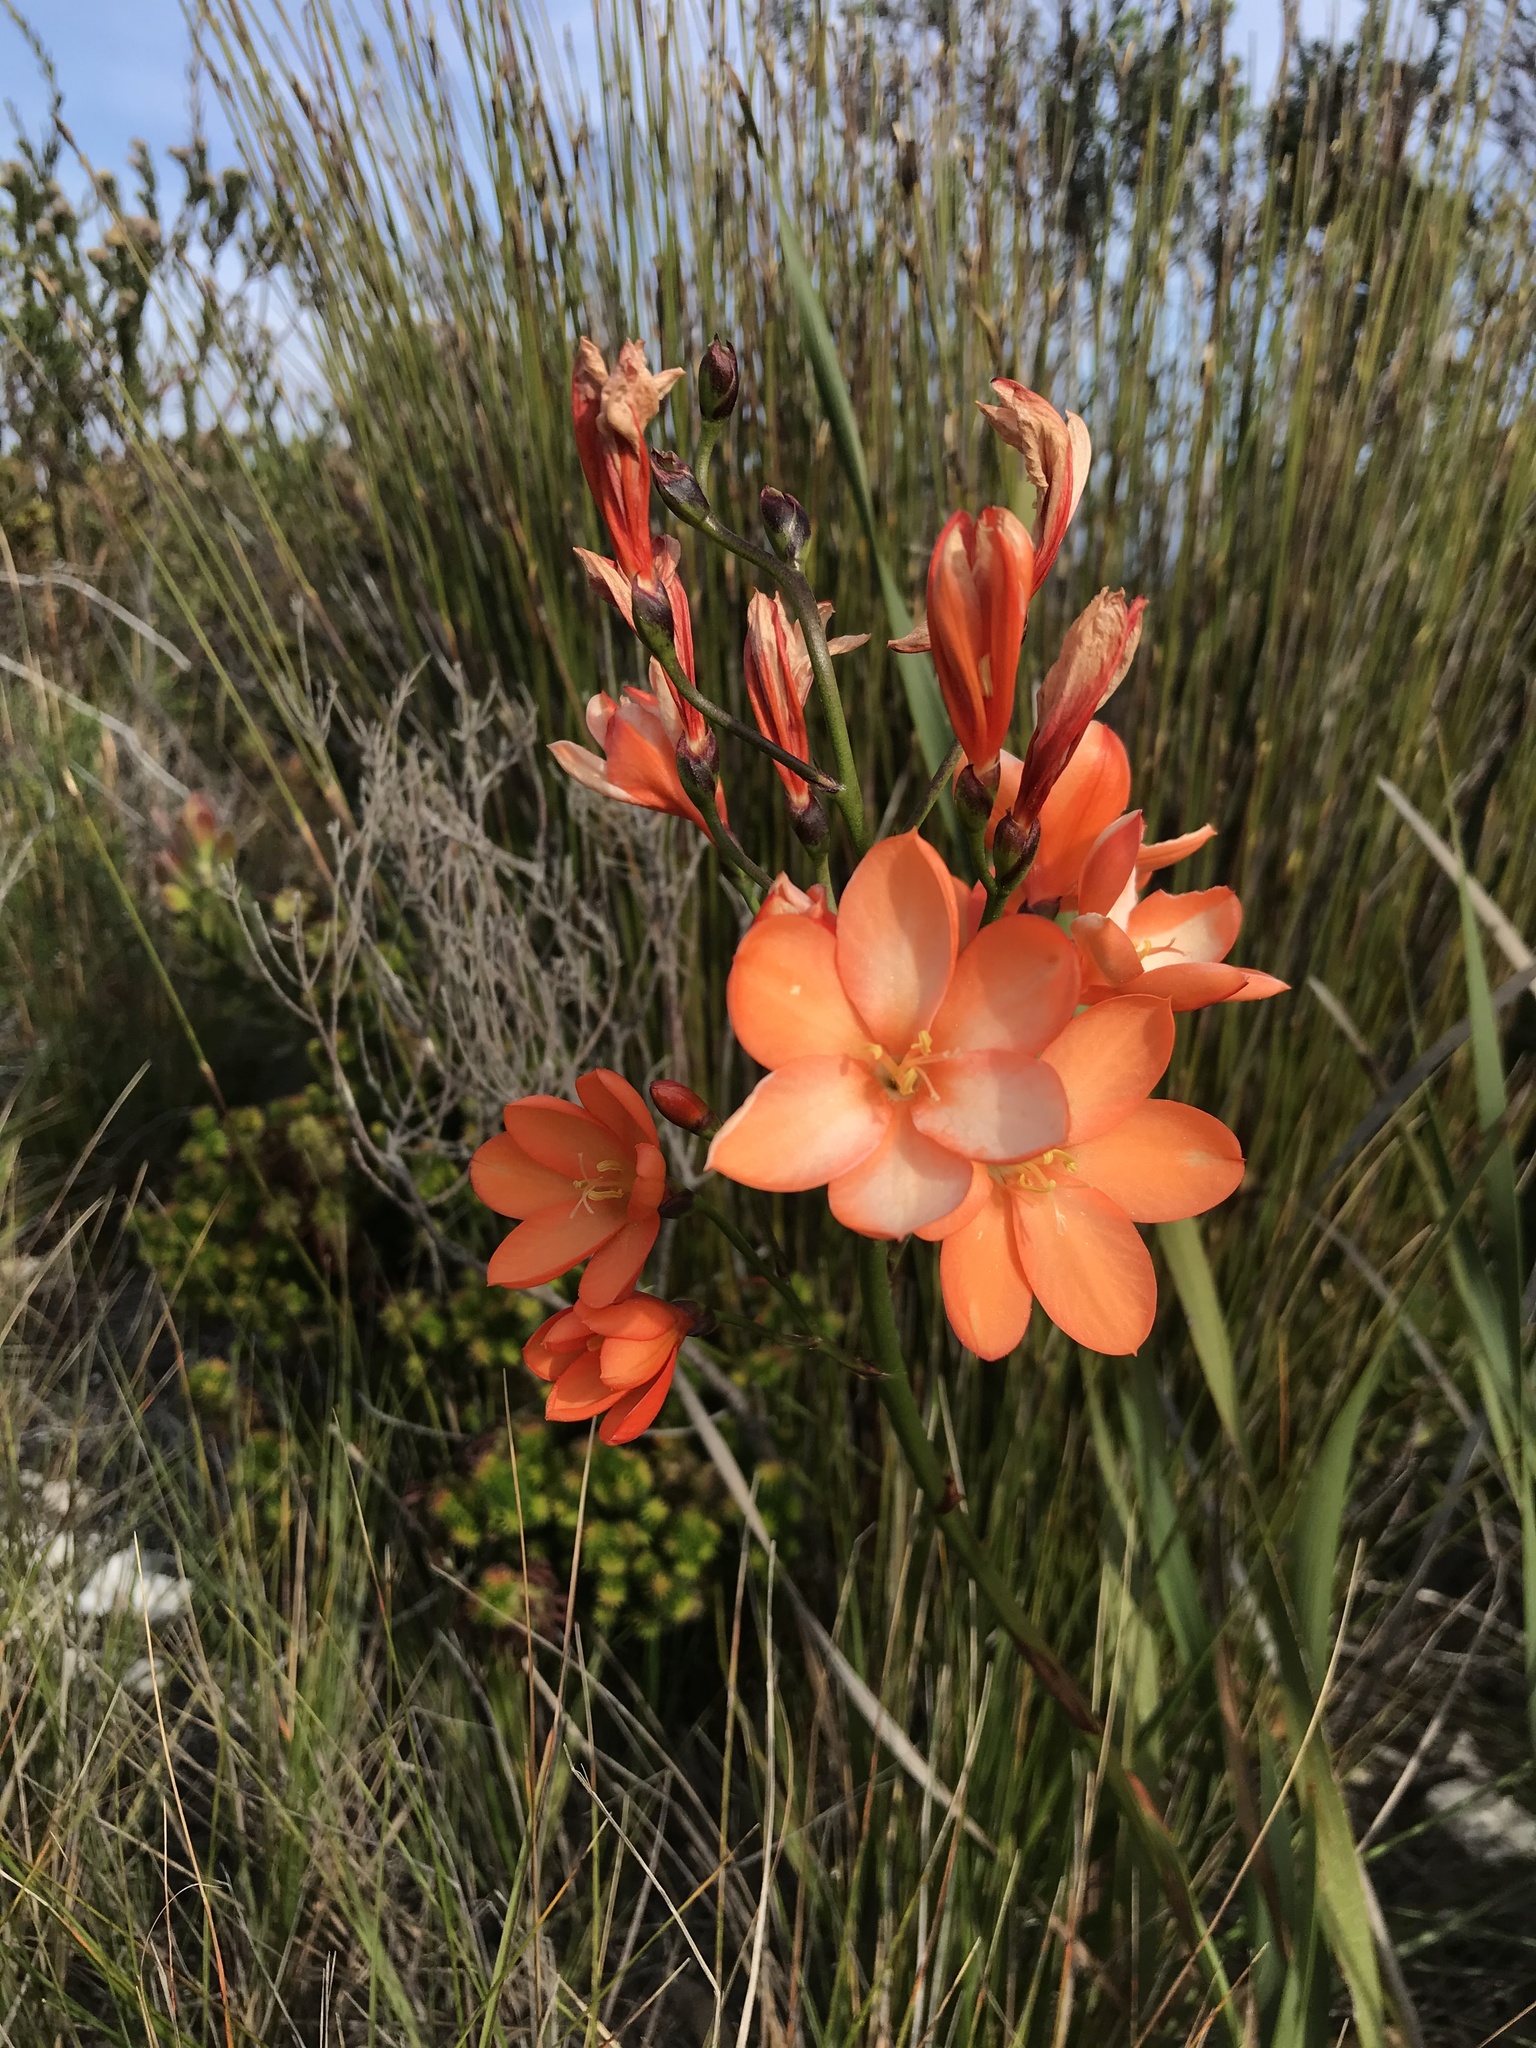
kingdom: Plantae
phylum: Tracheophyta
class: Liliopsida
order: Asparagales
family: Iridaceae
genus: Pillansia
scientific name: Pillansia templemannii
